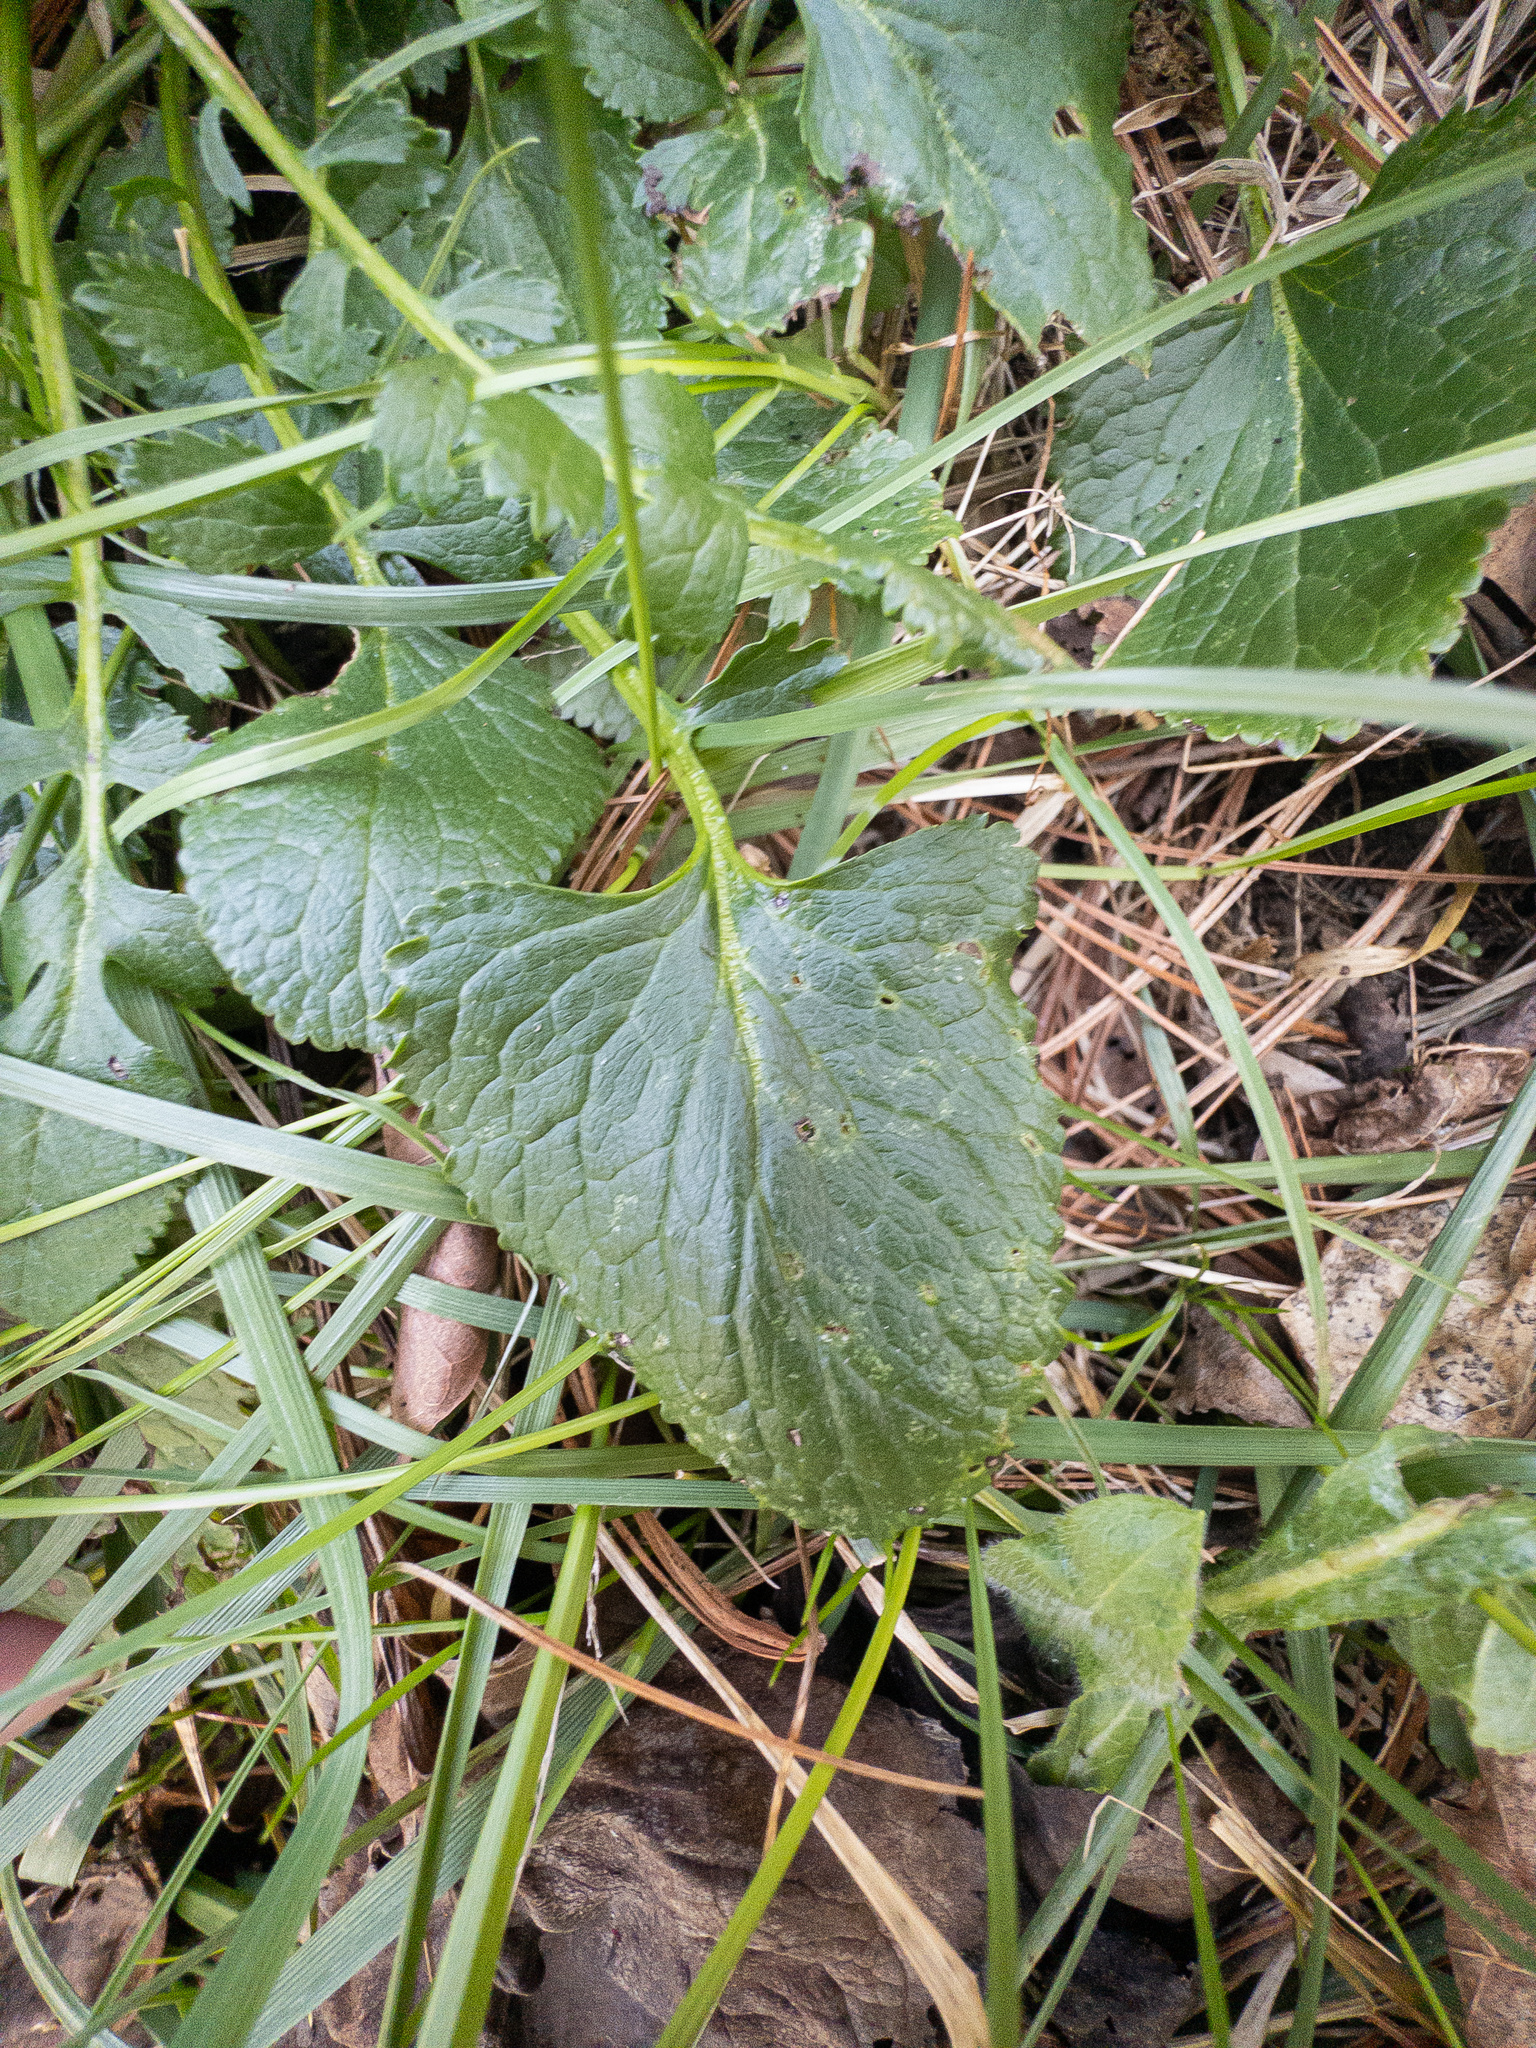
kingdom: Plantae
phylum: Tracheophyta
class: Magnoliopsida
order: Asterales
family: Asteraceae
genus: Packera
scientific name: Packera aurea
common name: Golden groundsel
